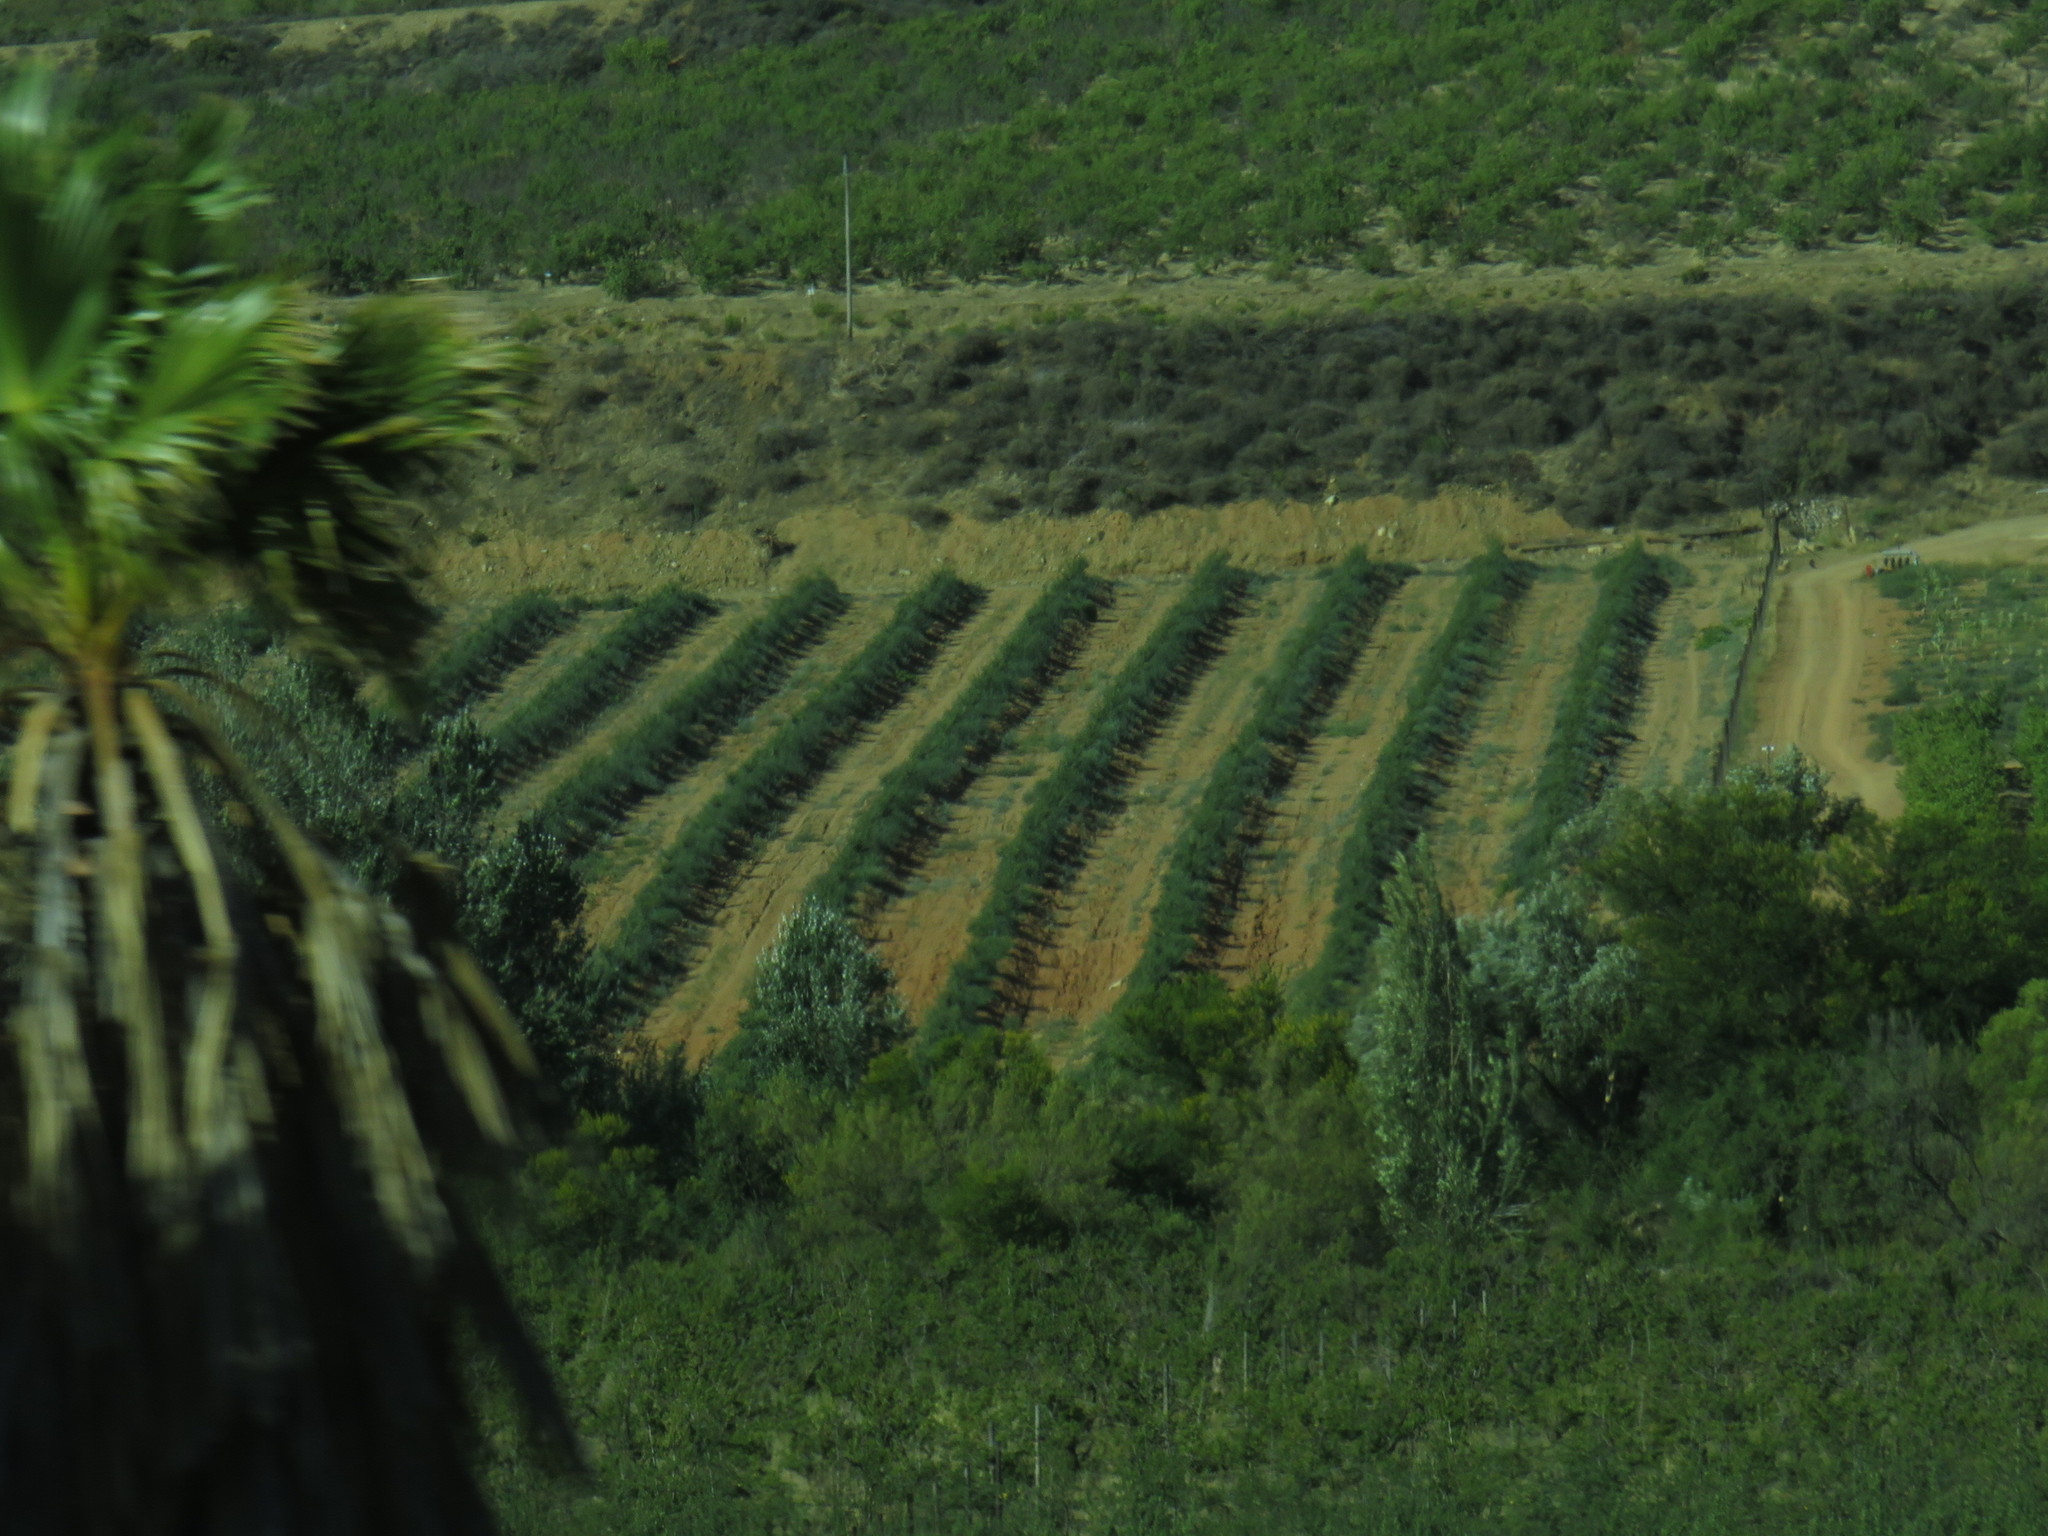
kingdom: Plantae
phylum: Tracheophyta
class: Magnoliopsida
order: Malpighiales
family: Salicaceae
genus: Populus
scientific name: Populus nigra
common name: Black poplar
